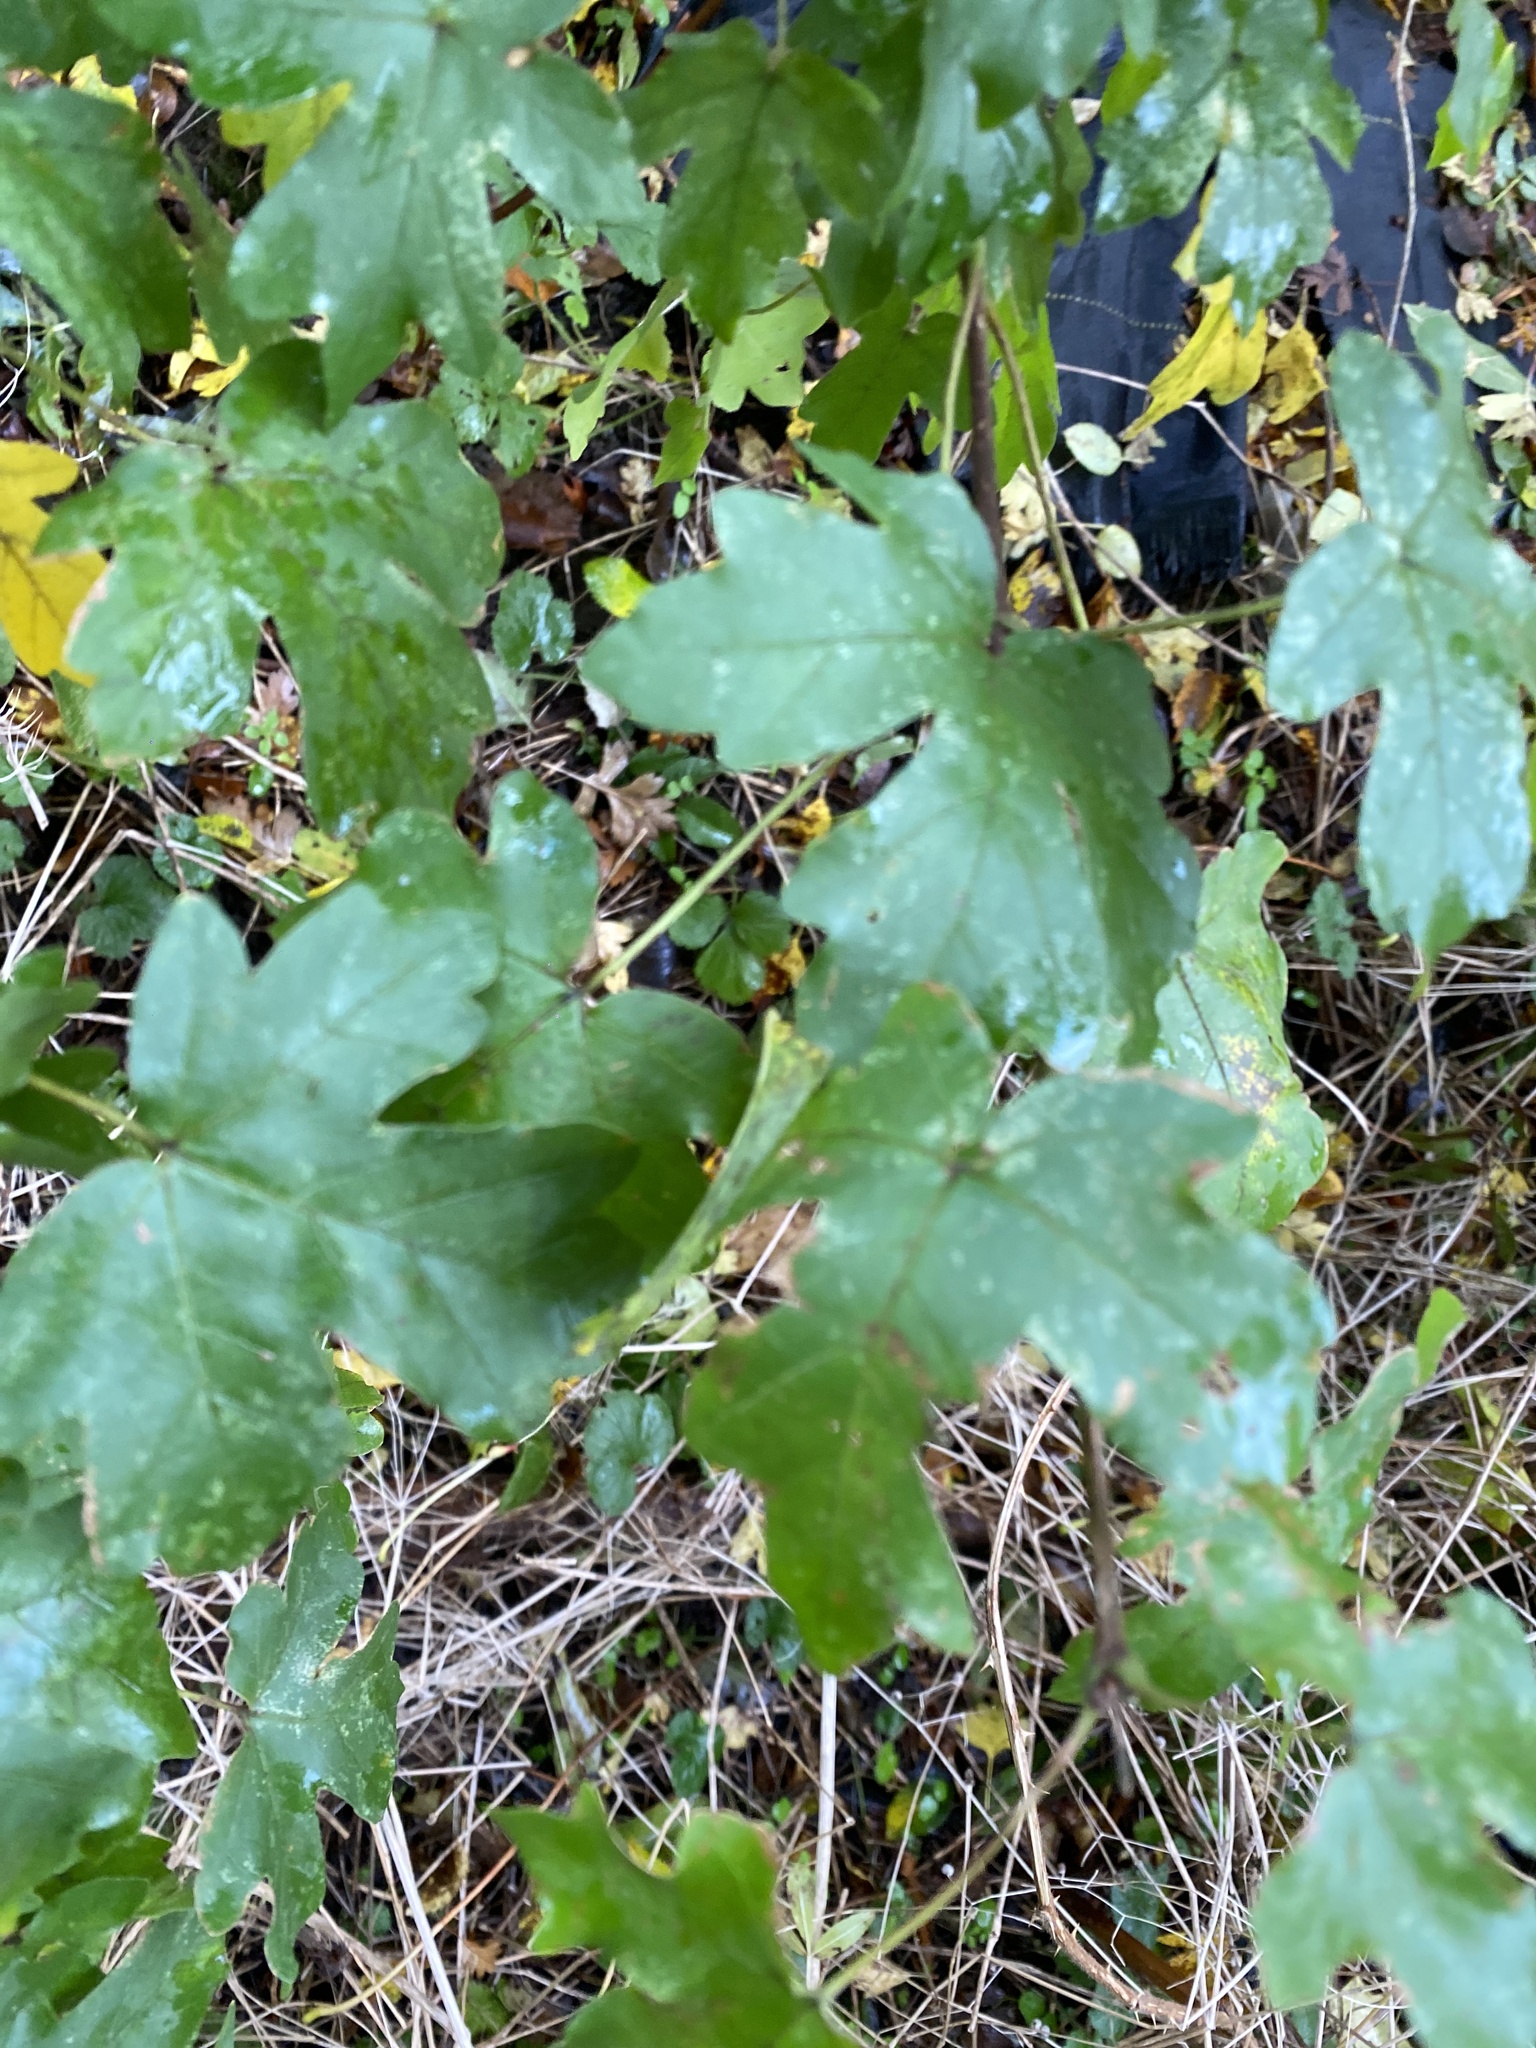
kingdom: Plantae
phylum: Tracheophyta
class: Magnoliopsida
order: Sapindales
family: Sapindaceae
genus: Acer
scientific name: Acer campestre
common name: Field maple
